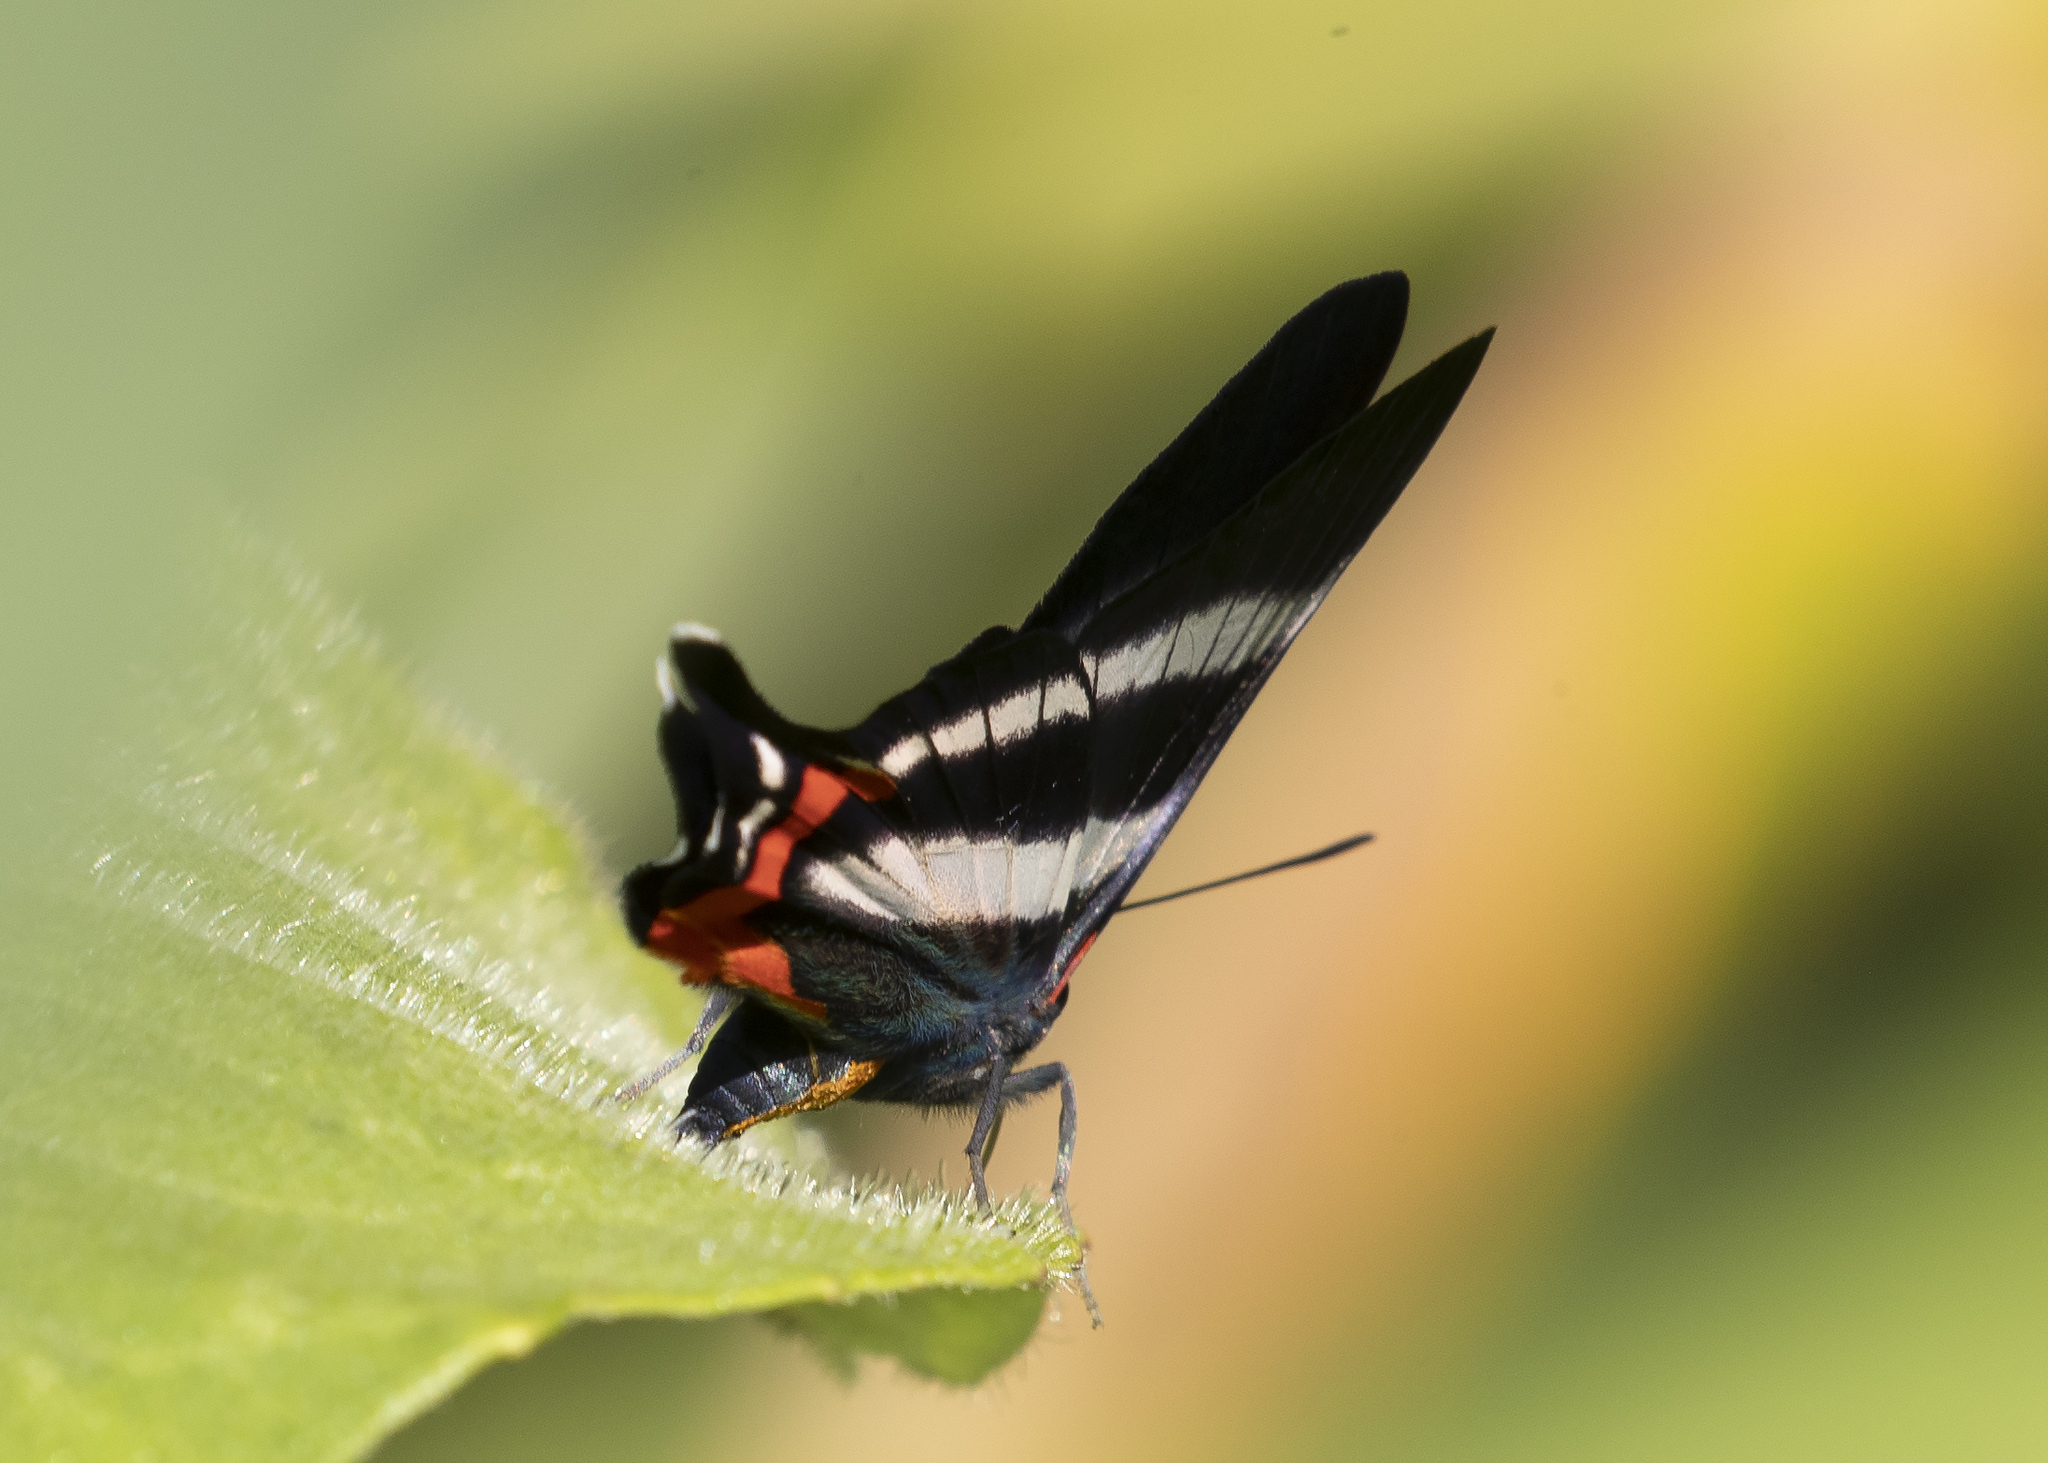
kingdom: Animalia
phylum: Arthropoda
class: Insecta
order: Lepidoptera
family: Riodinidae
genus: Rhetus
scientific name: Rhetus dysonii
